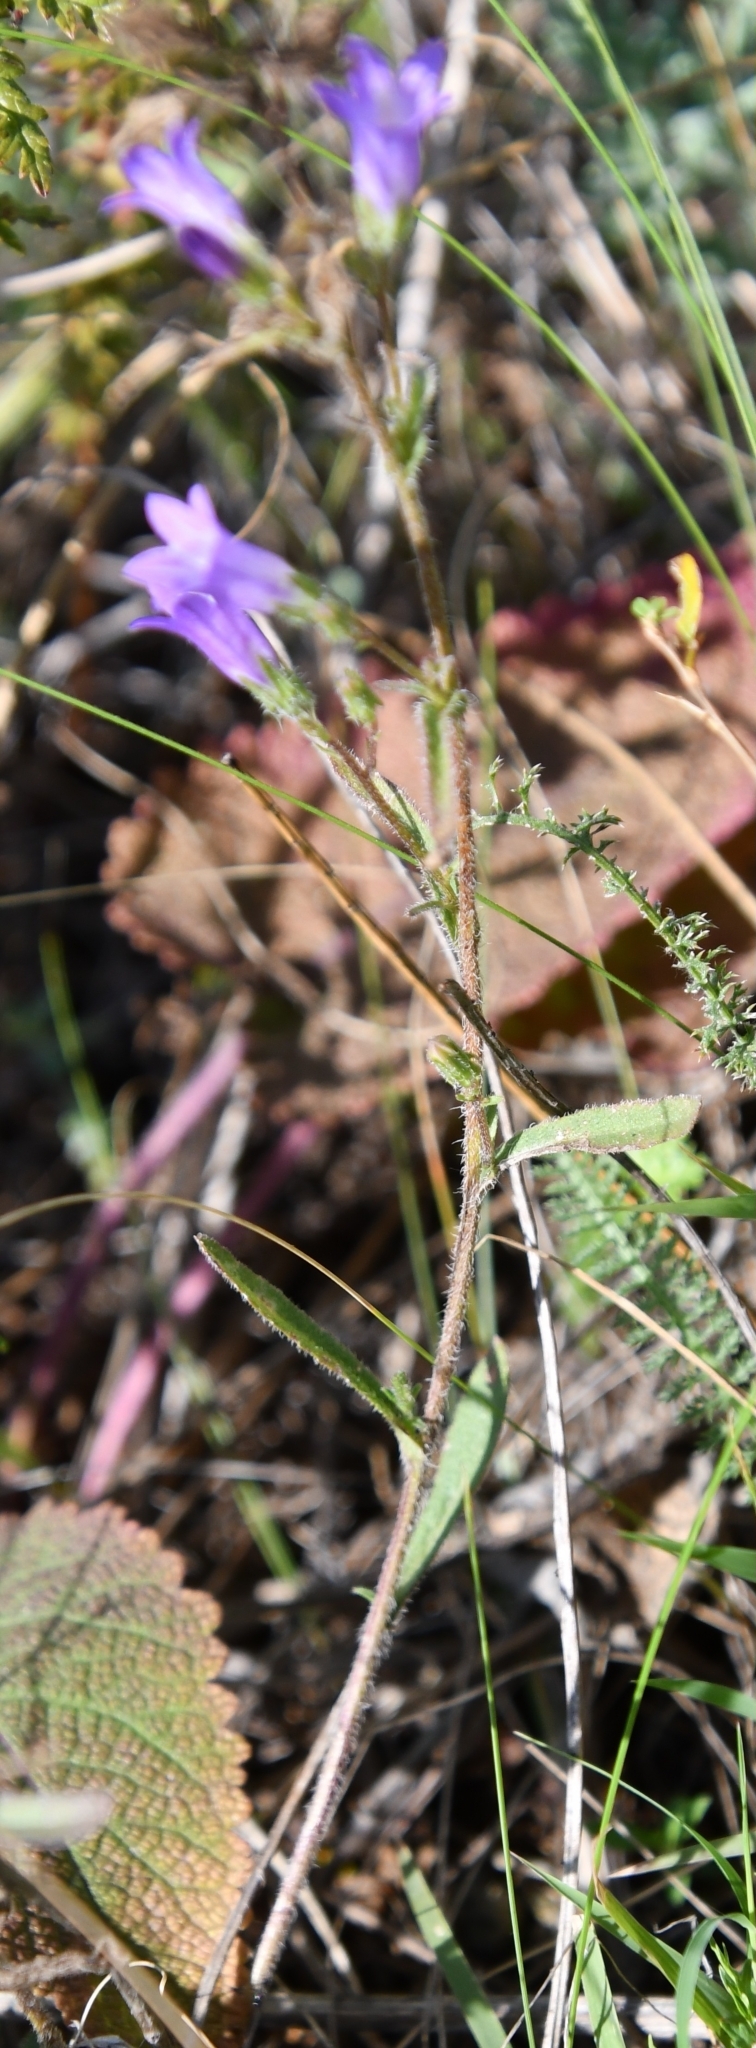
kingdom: Plantae
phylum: Tracheophyta
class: Magnoliopsida
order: Asterales
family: Campanulaceae
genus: Campanula
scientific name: Campanula sibirica
